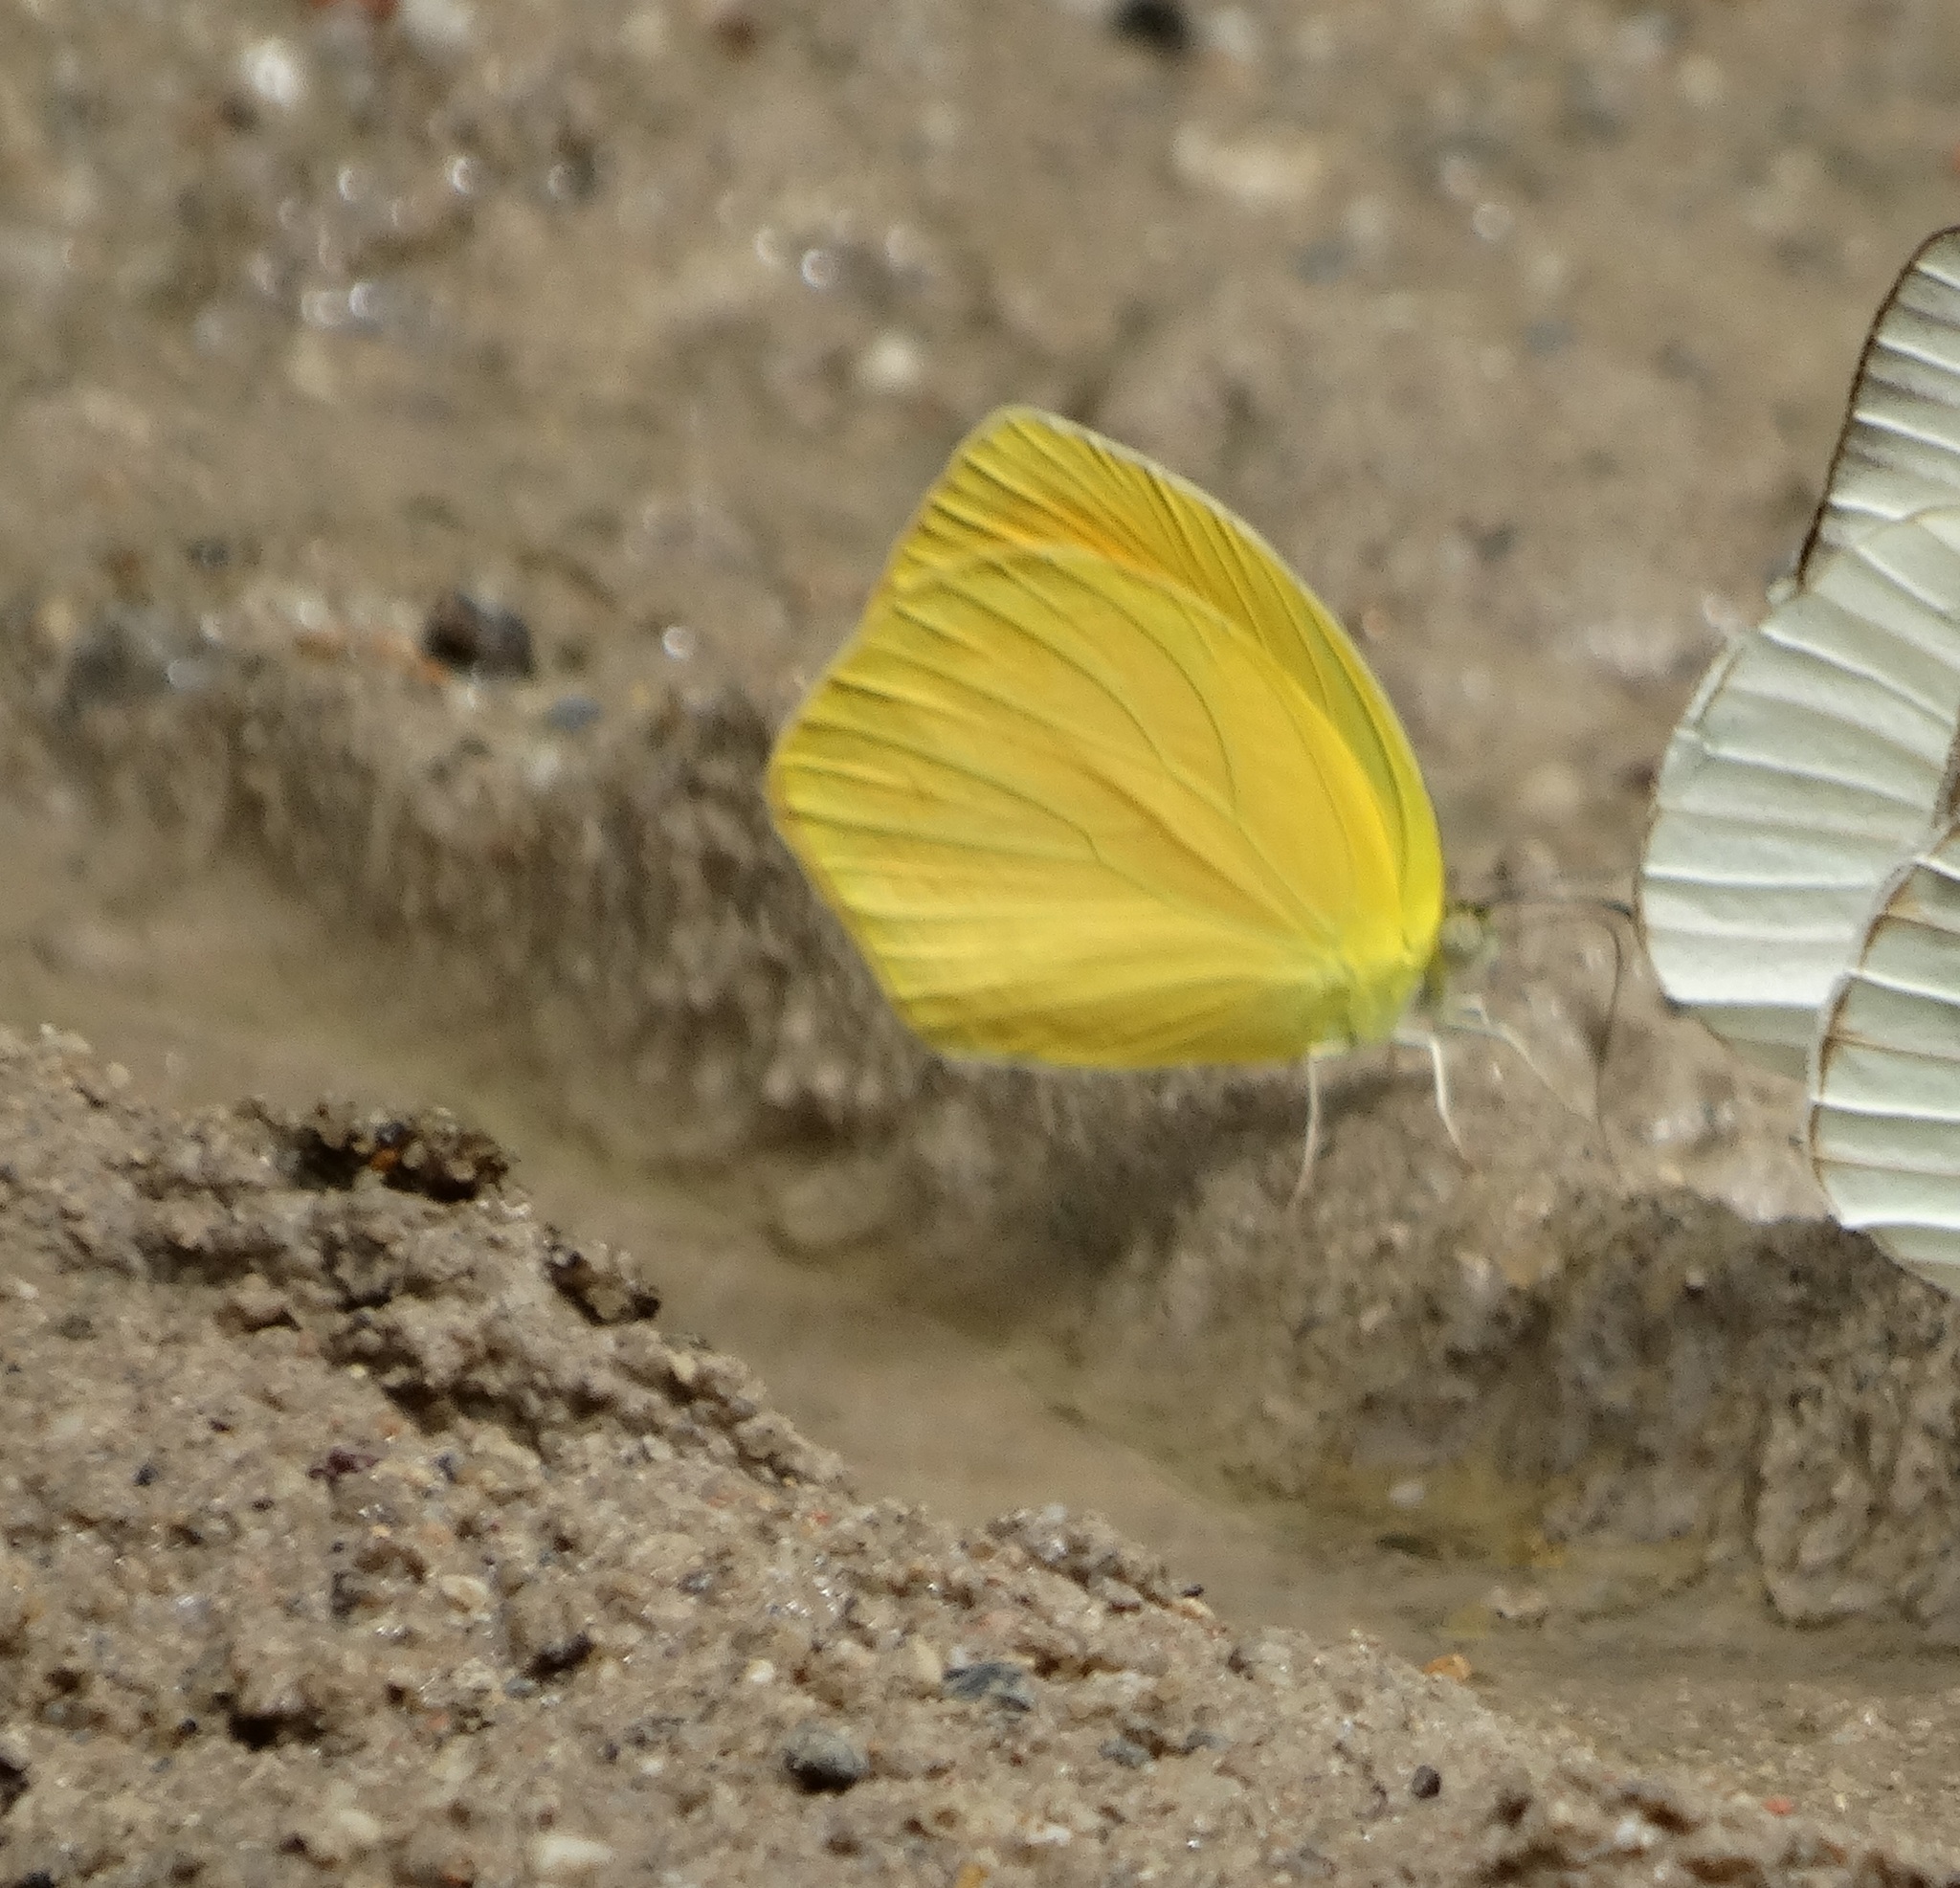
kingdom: Animalia
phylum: Arthropoda
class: Insecta
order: Lepidoptera
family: Pieridae
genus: Pyrisitia
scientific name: Pyrisitia proterpia
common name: Tailed orange
